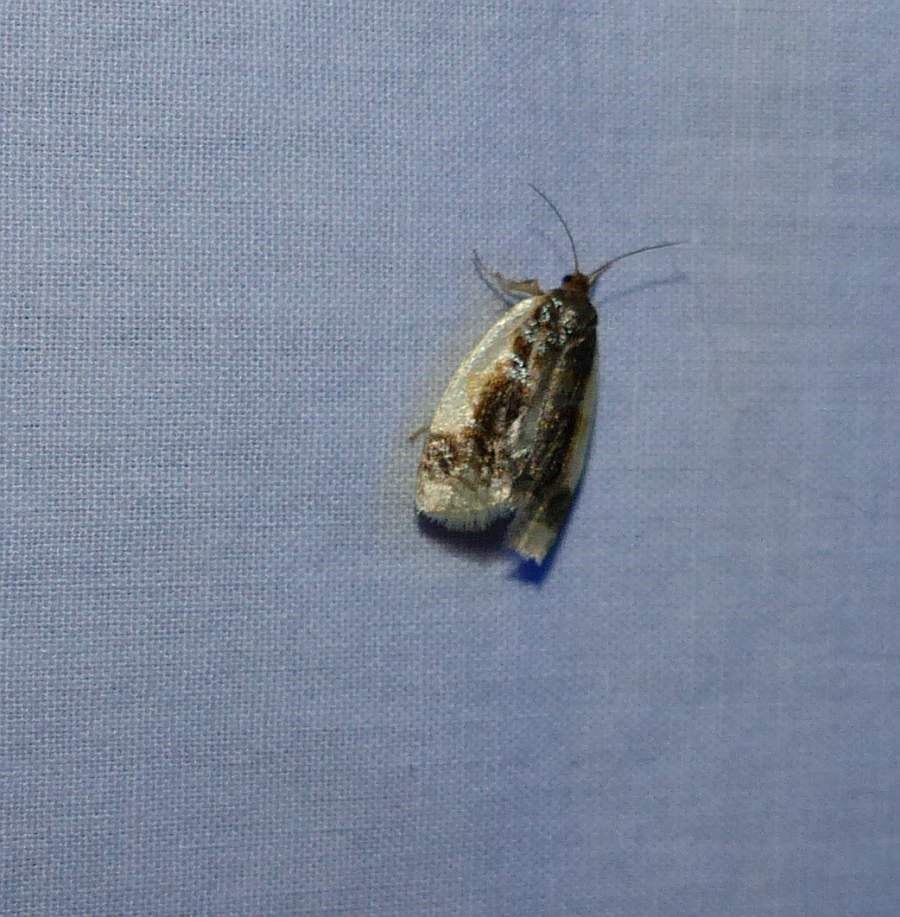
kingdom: Animalia
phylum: Arthropoda
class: Insecta
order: Lepidoptera
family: Tortricidae
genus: Clepsis
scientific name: Clepsis melaleucanus
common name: American apple tortrix
